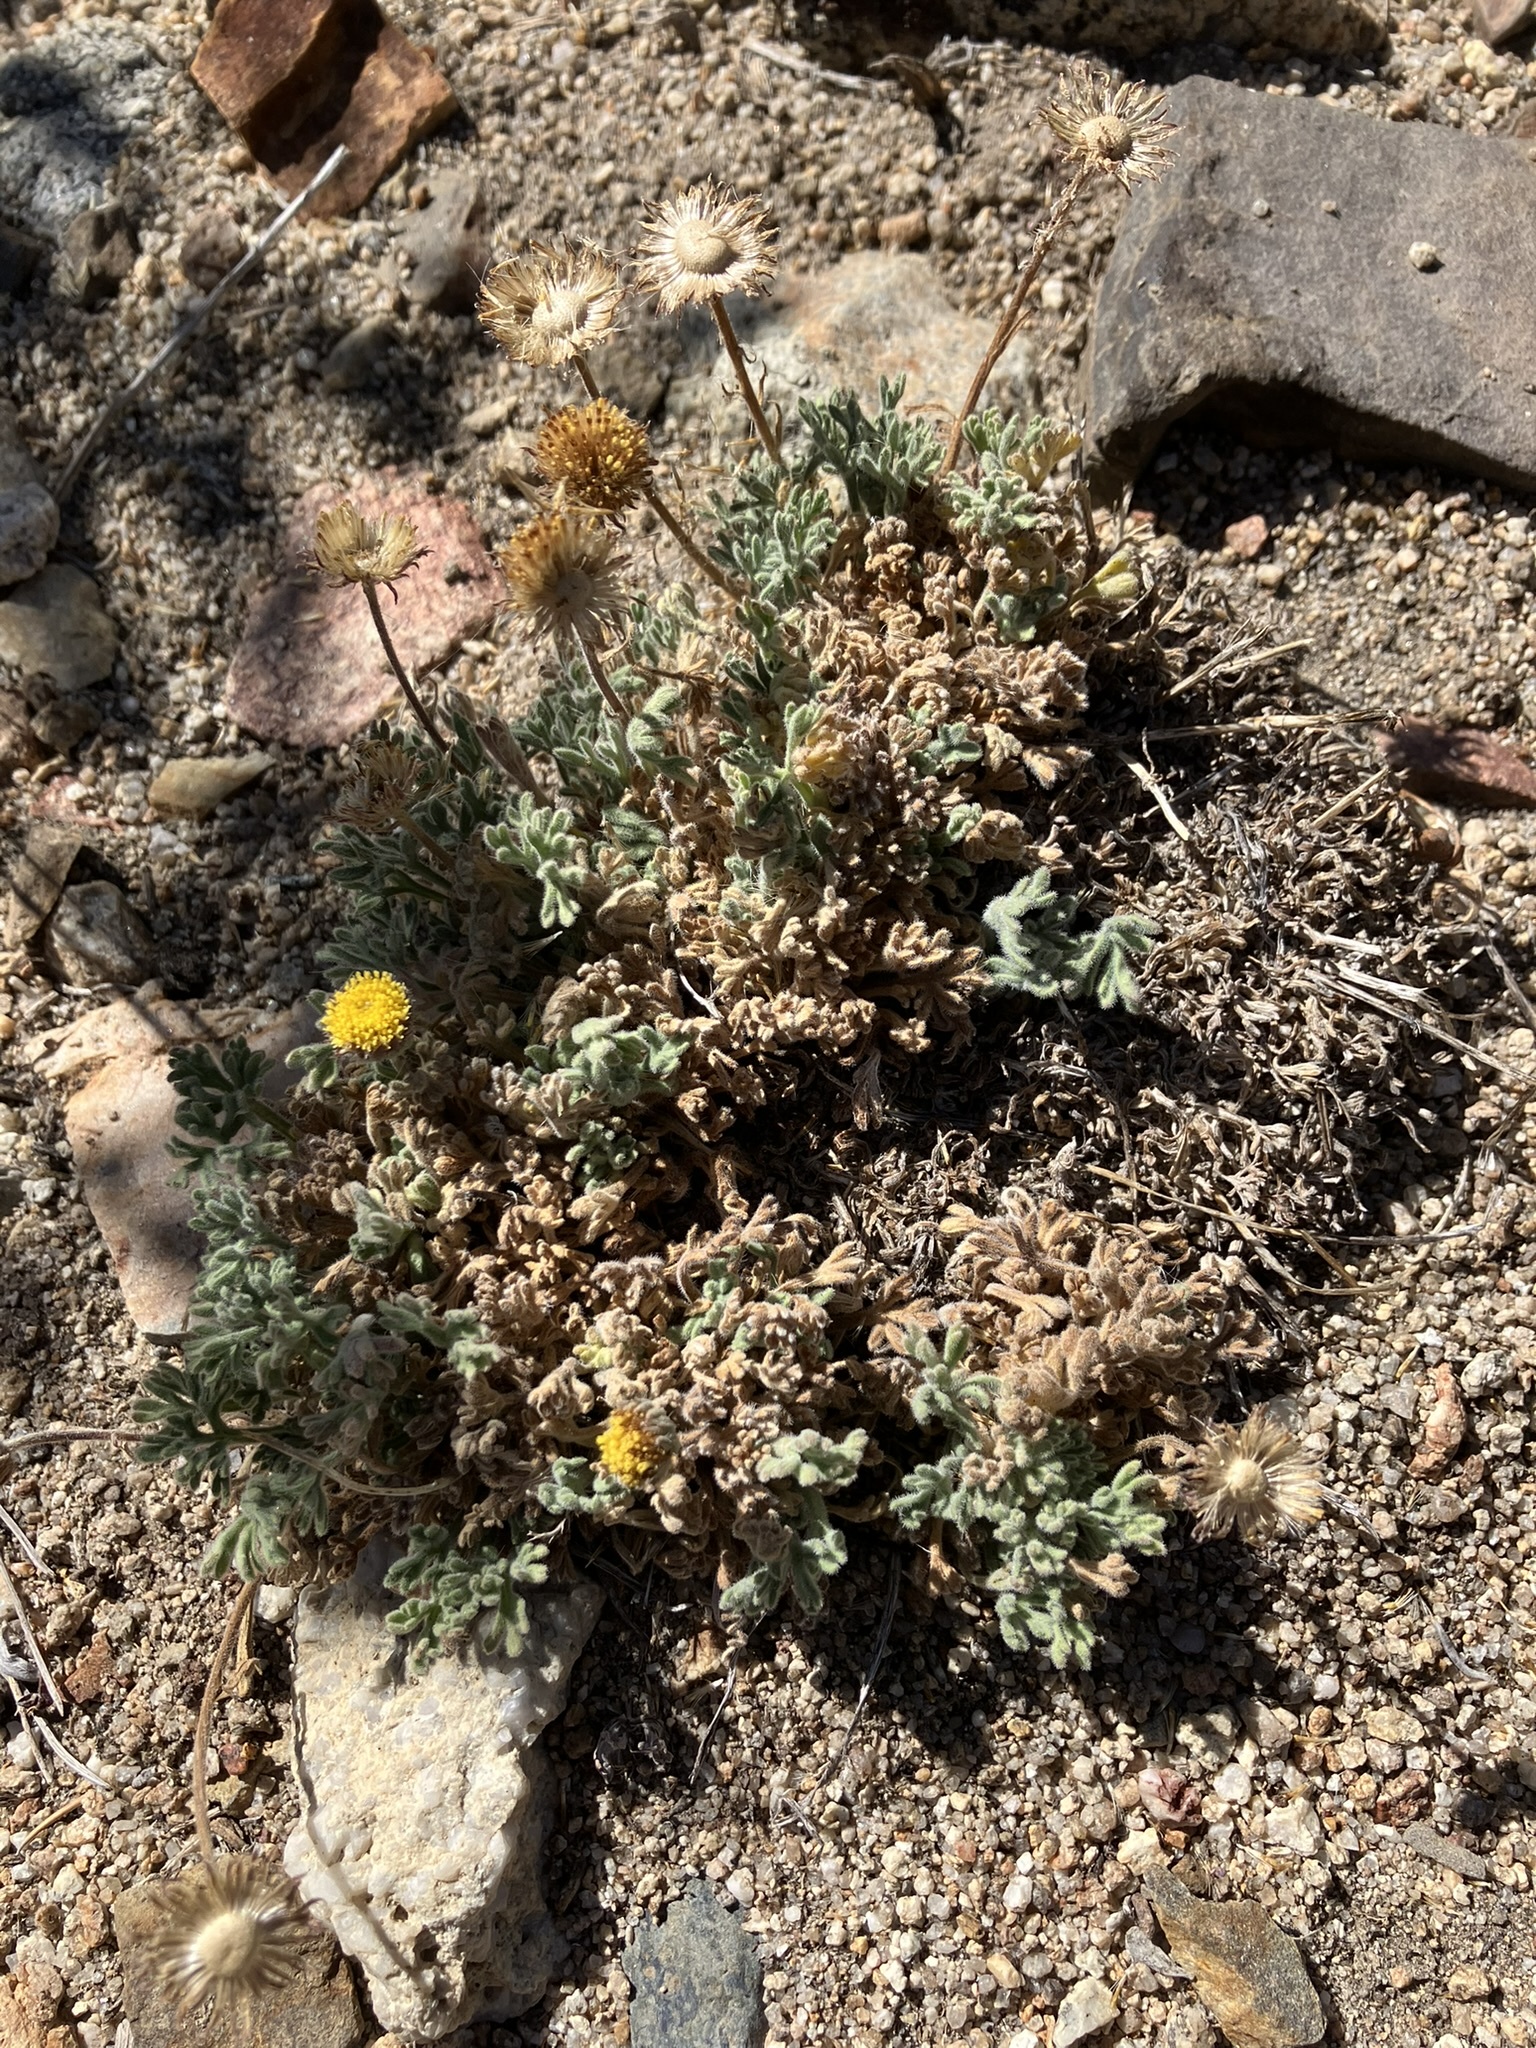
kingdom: Plantae
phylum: Tracheophyta
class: Magnoliopsida
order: Asterales
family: Asteraceae
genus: Erigeron
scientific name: Erigeron compositus
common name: Dwarf mountain fleabane
